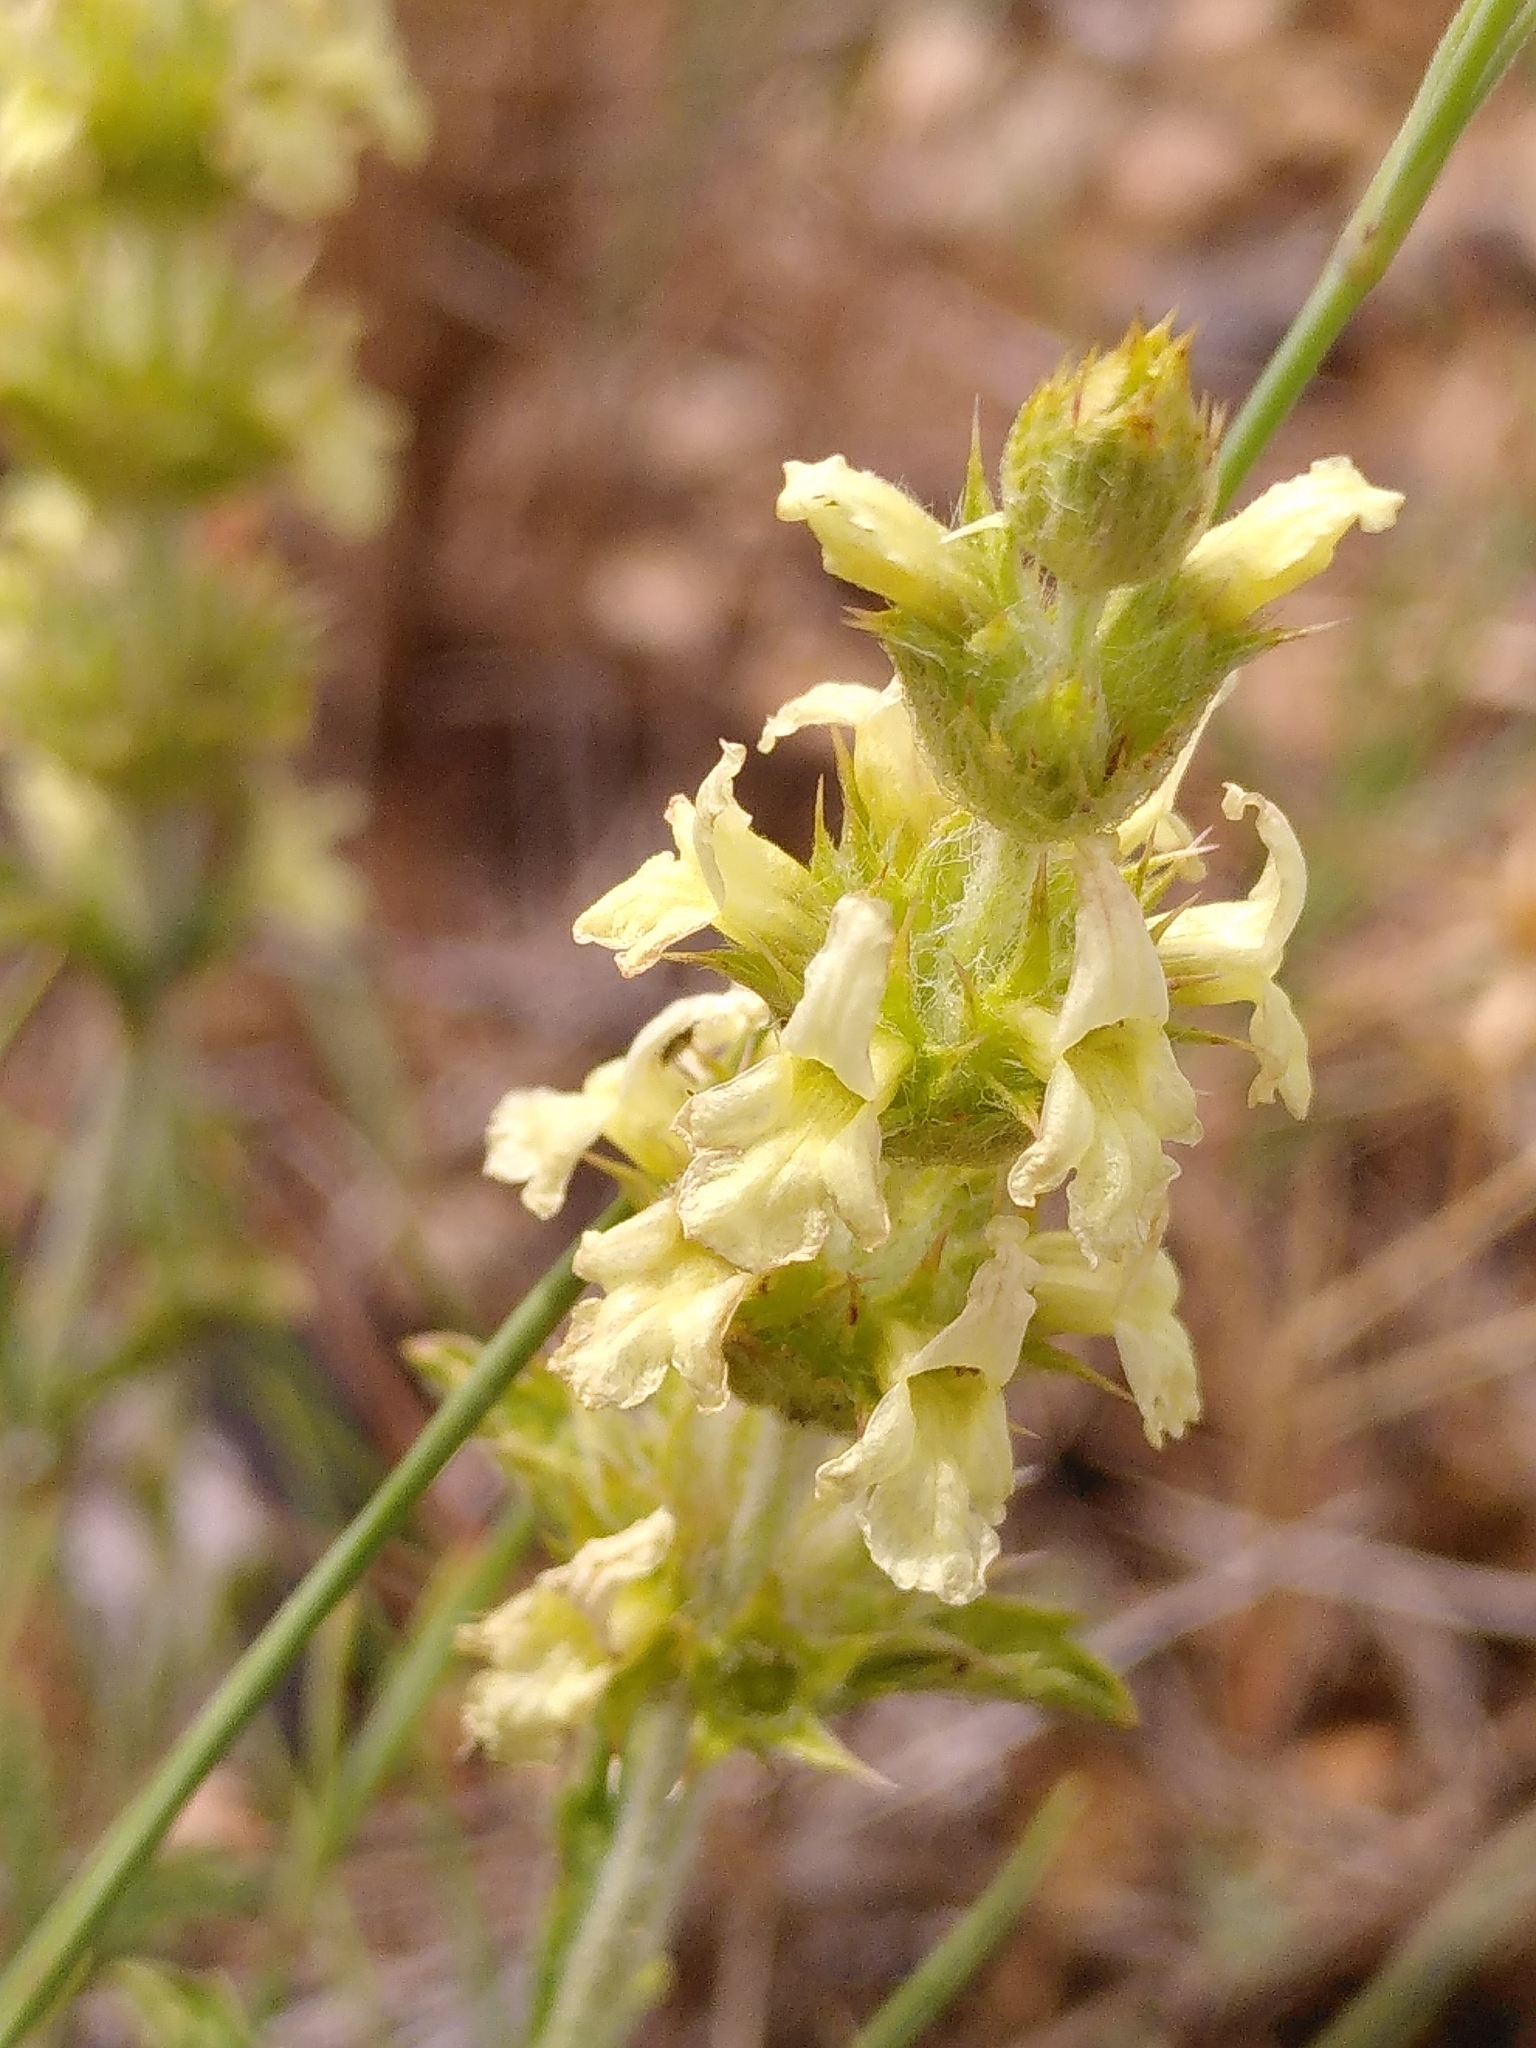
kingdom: Plantae
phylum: Tracheophyta
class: Magnoliopsida
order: Lamiales
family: Lamiaceae
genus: Sideritis
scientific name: Sideritis fruticulosa
